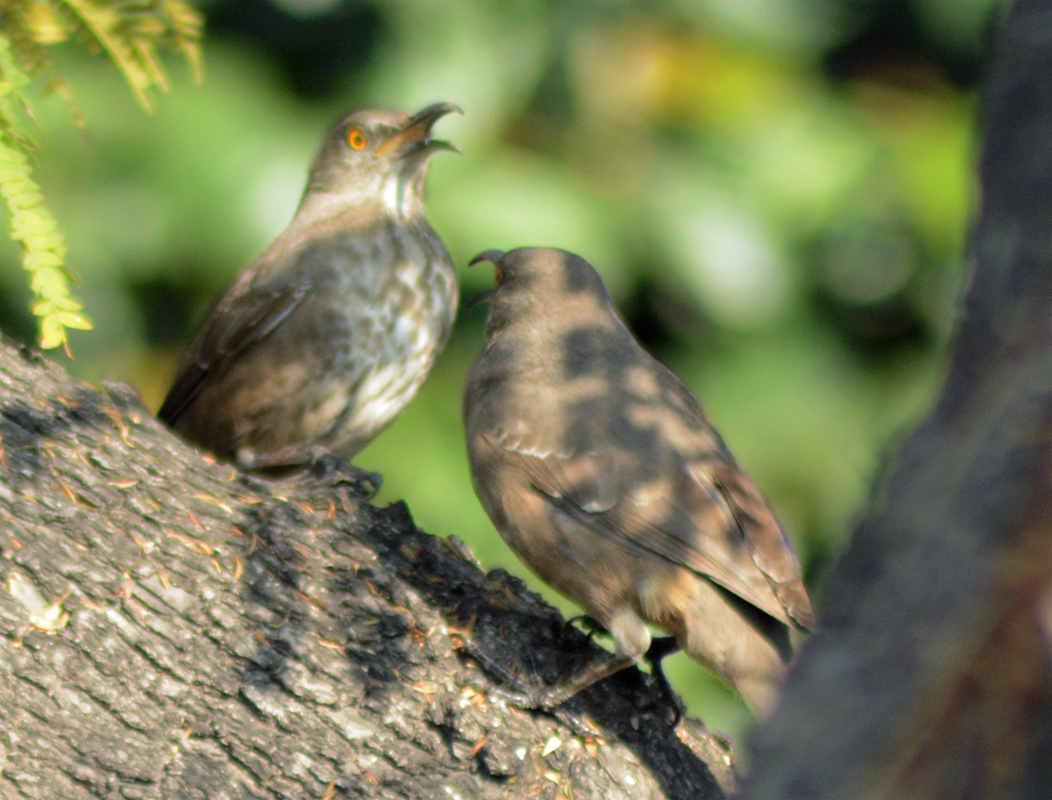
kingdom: Animalia
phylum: Chordata
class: Aves
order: Passeriformes
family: Mimidae
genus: Toxostoma
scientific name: Toxostoma curvirostre
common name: Curve-billed thrasher
